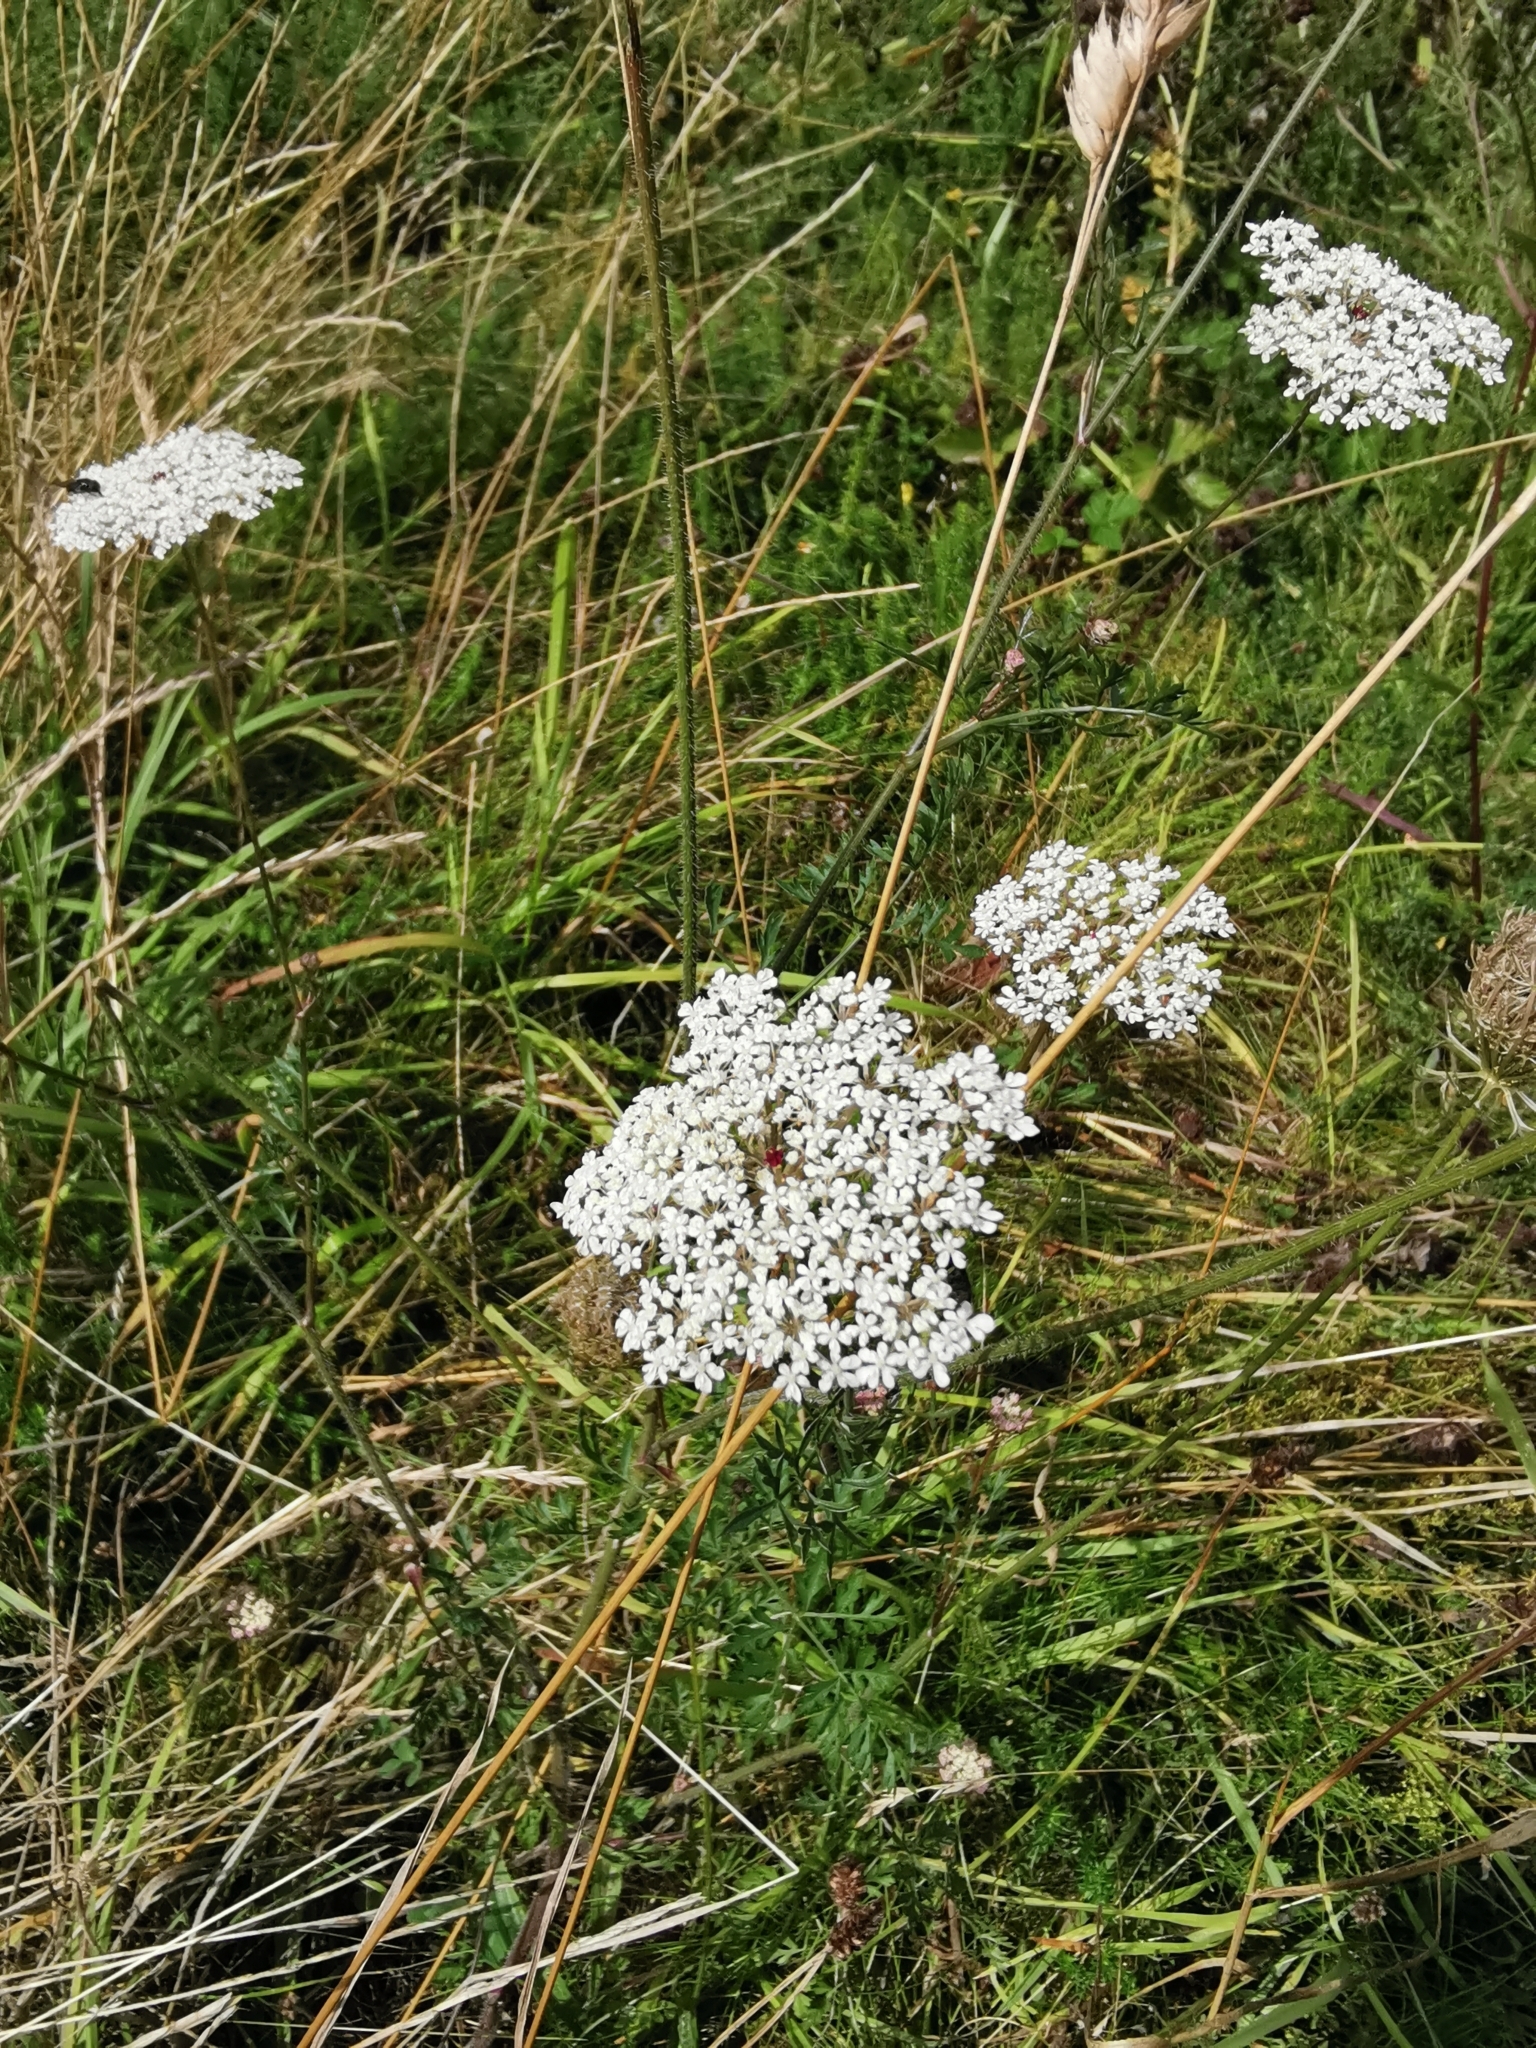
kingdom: Plantae
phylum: Tracheophyta
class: Magnoliopsida
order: Apiales
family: Apiaceae
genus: Daucus
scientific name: Daucus carota
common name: Wild carrot
